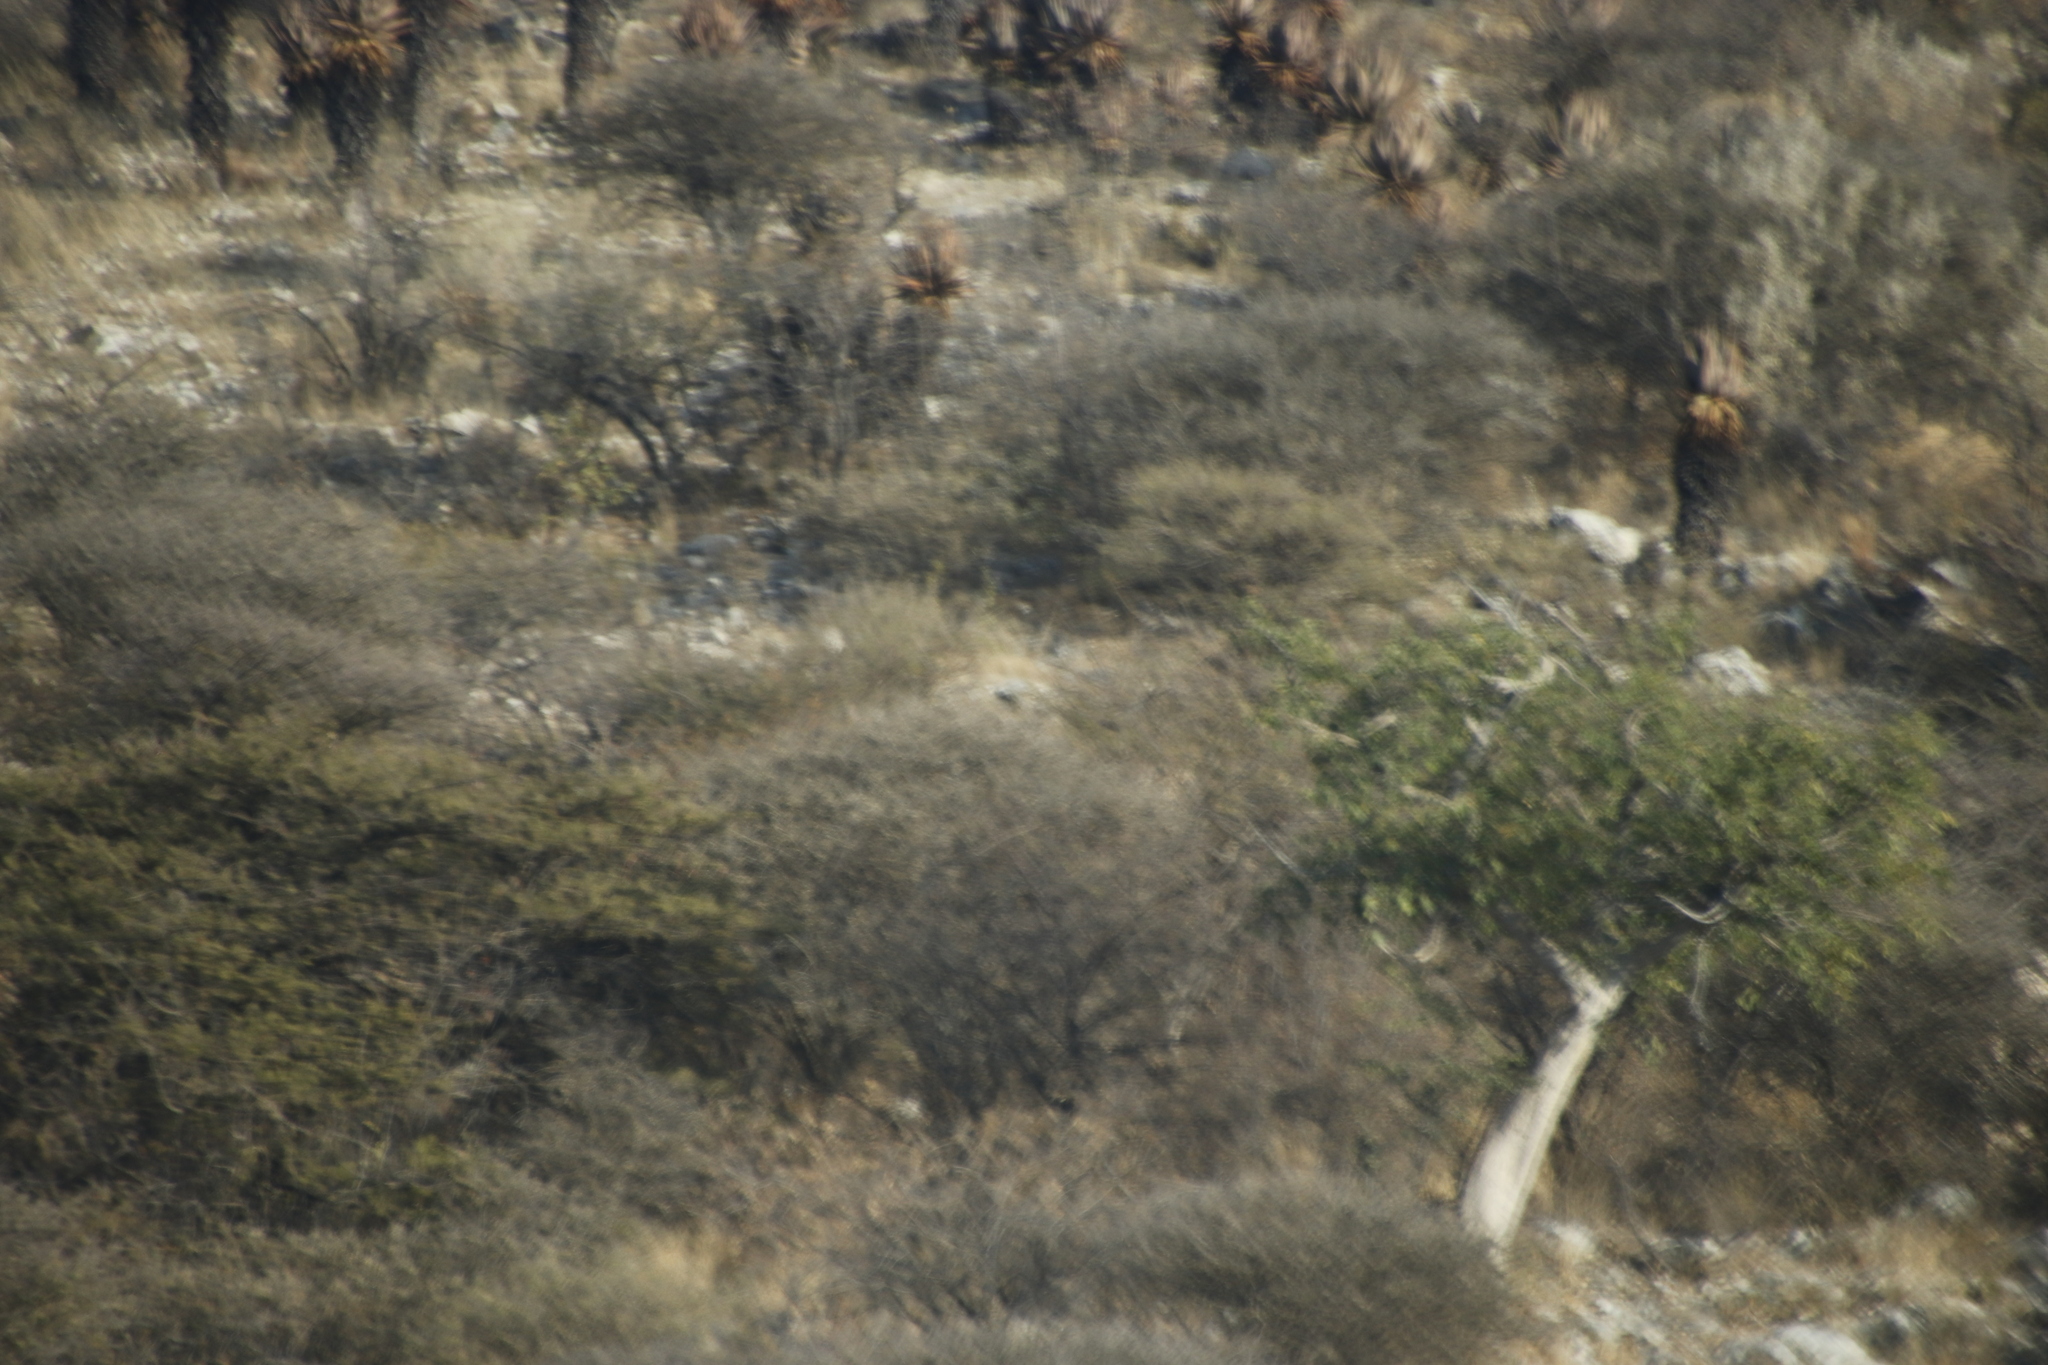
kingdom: Plantae
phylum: Tracheophyta
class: Liliopsida
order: Asparagales
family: Asphodelaceae
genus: Aloe
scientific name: Aloe littoralis
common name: Luanda tree aloe
